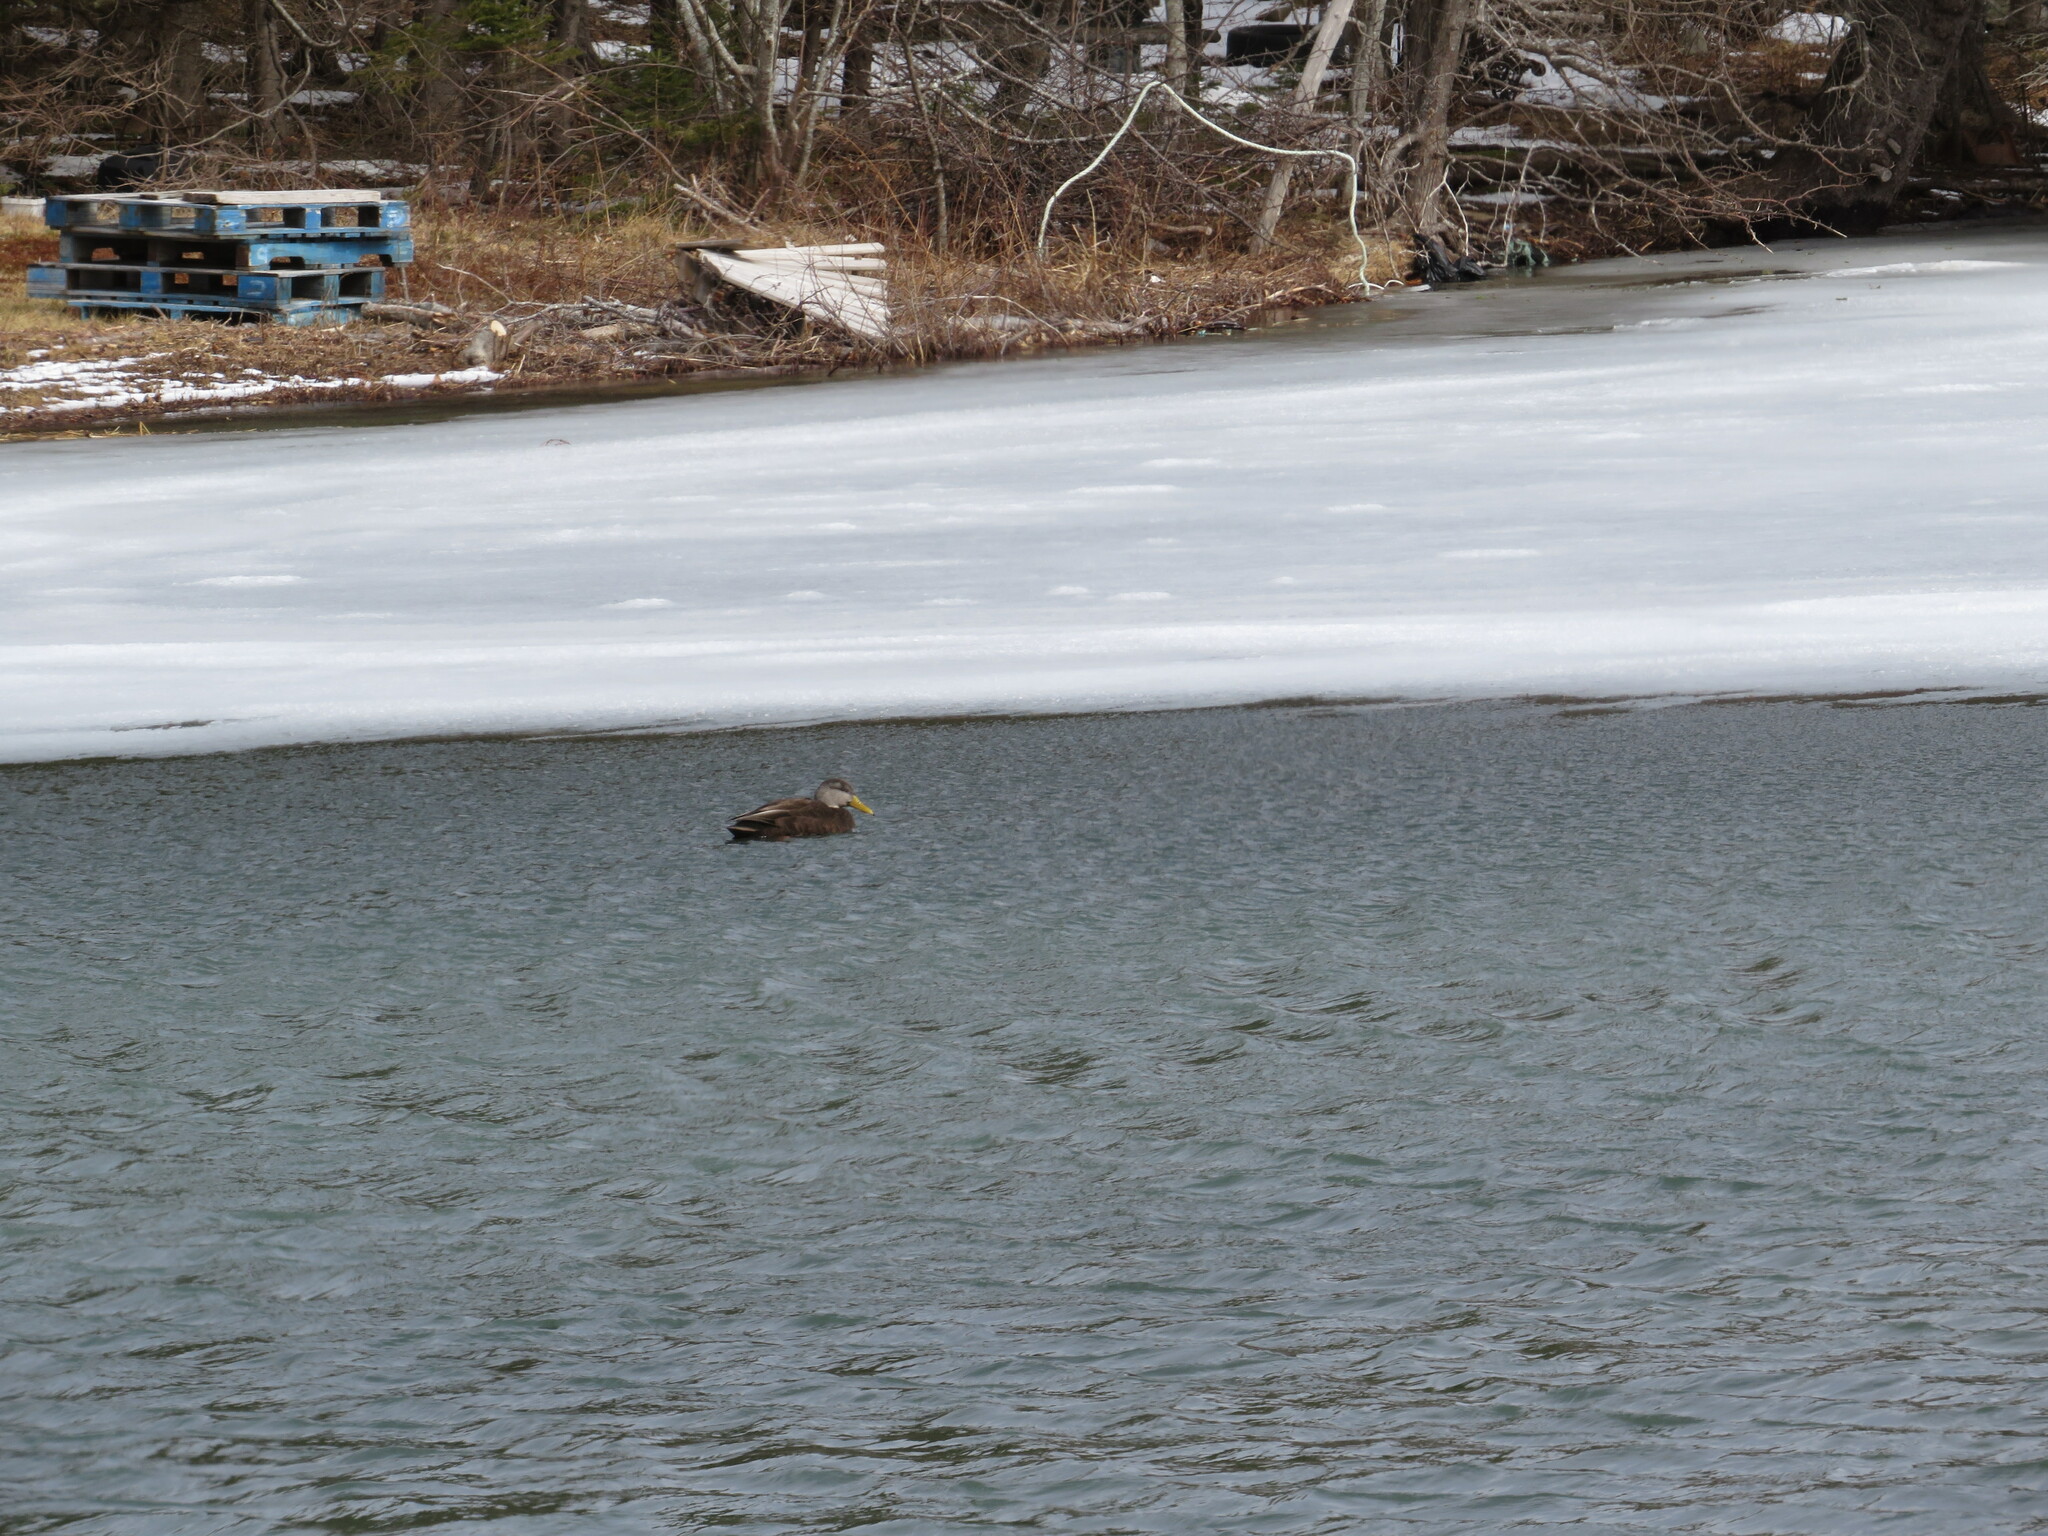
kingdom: Animalia
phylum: Chordata
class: Aves
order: Anseriformes
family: Anatidae
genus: Anas
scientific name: Anas rubripes
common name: American black duck
